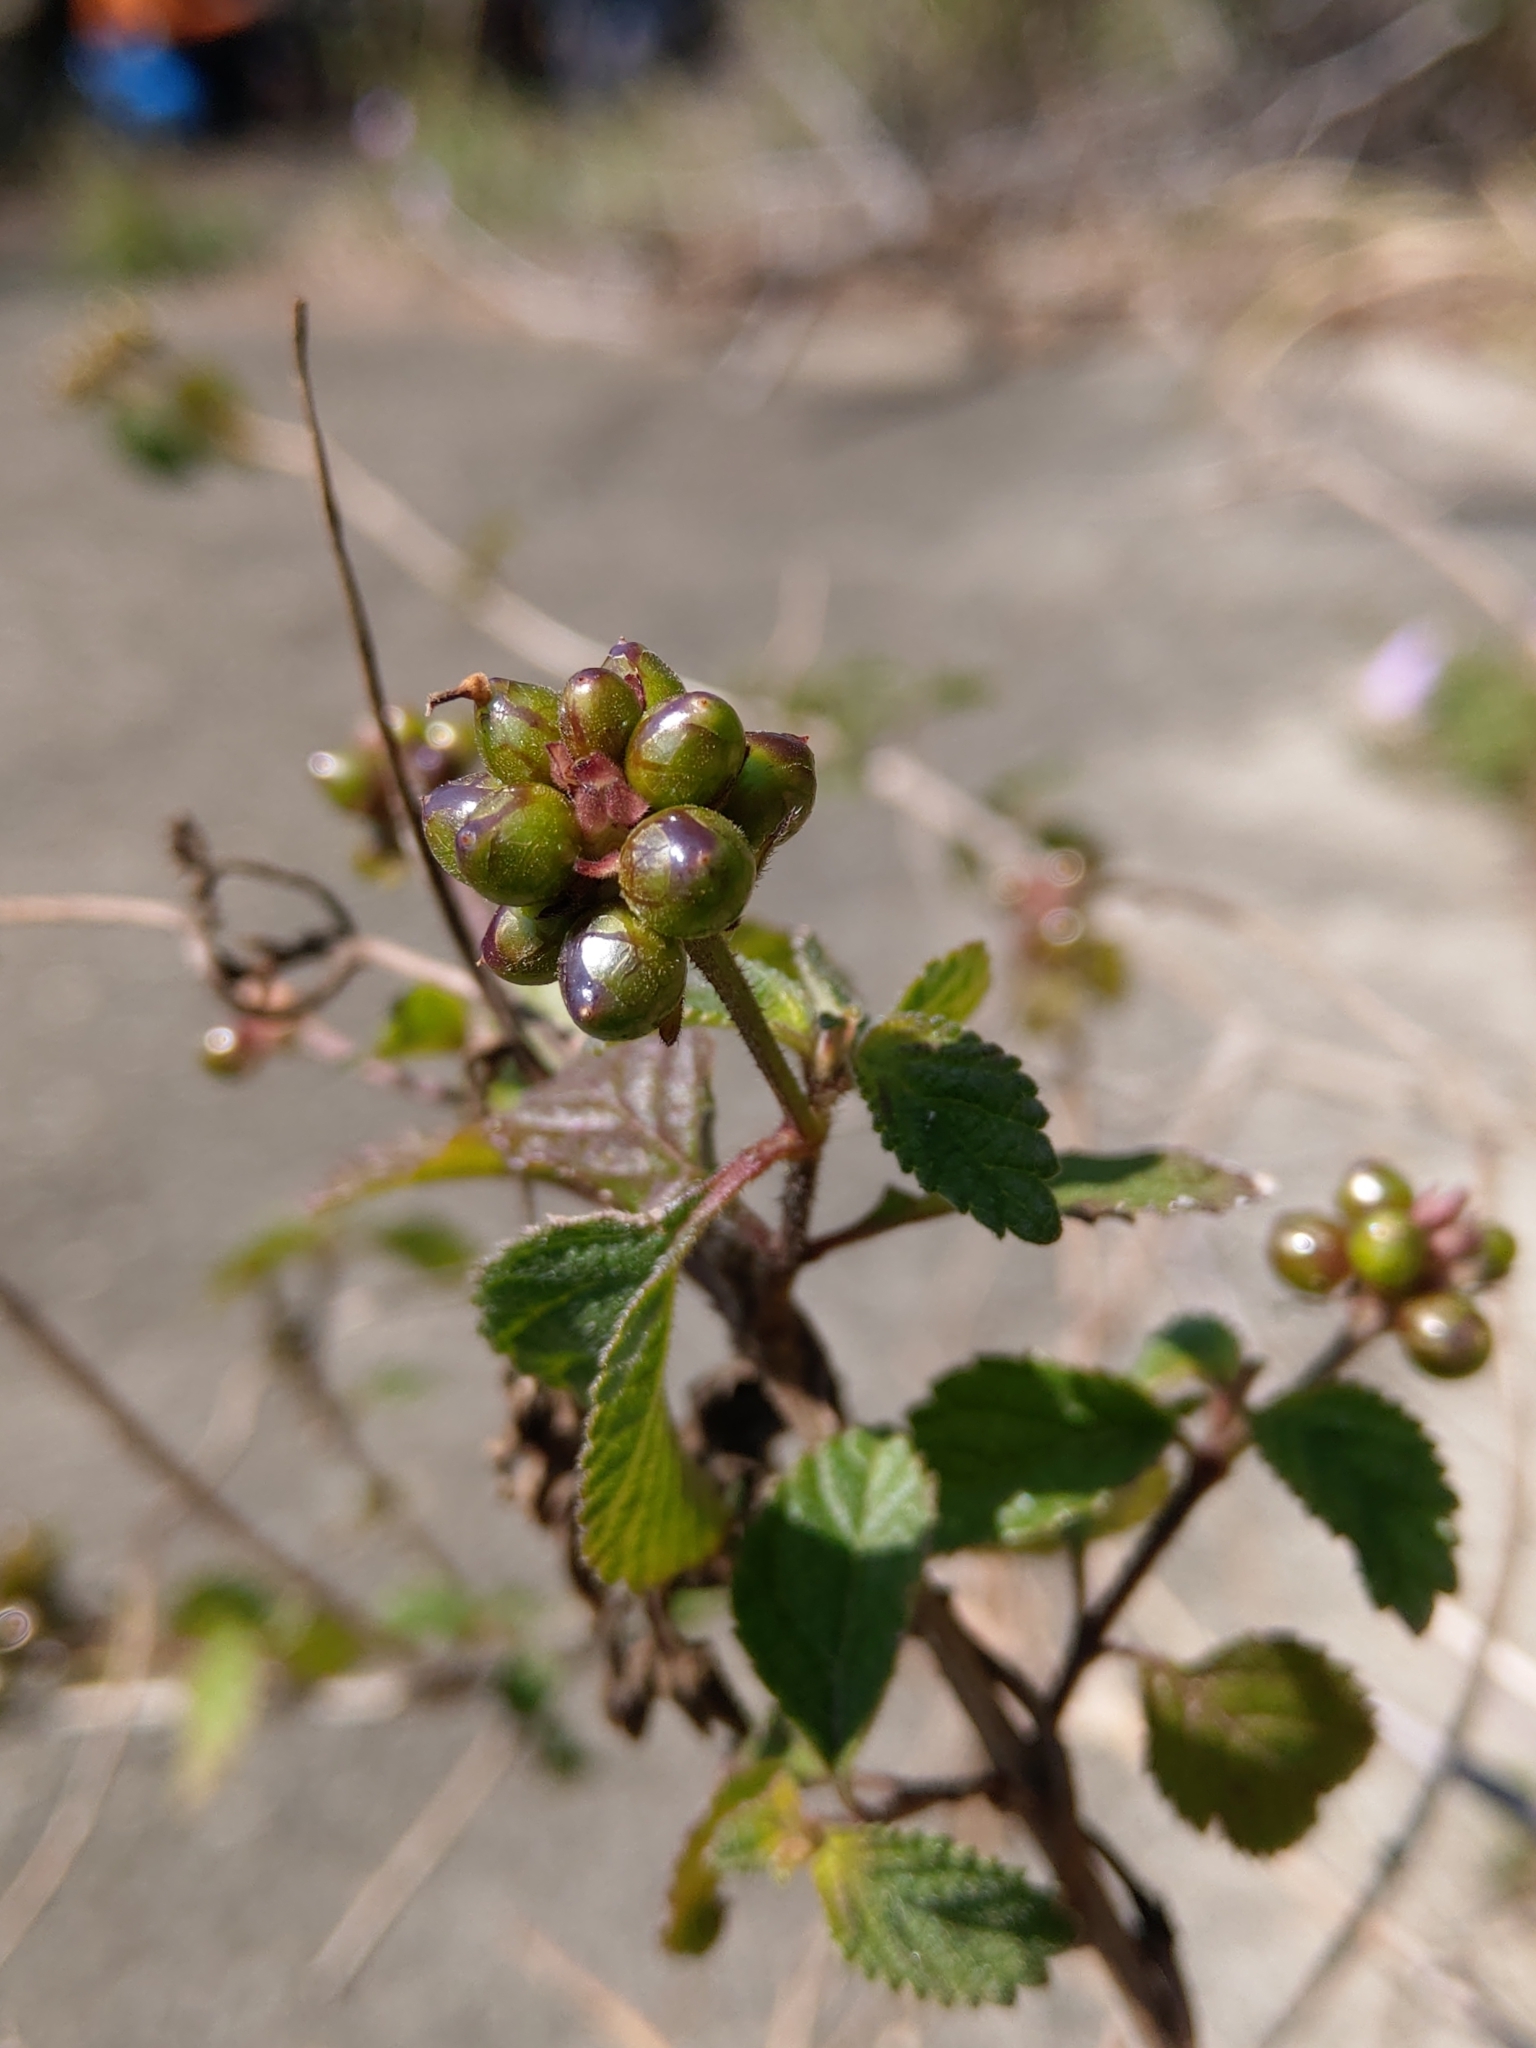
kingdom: Plantae
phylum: Tracheophyta
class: Magnoliopsida
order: Lamiales
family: Verbenaceae
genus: Lantana
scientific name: Lantana camara
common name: Lantana
